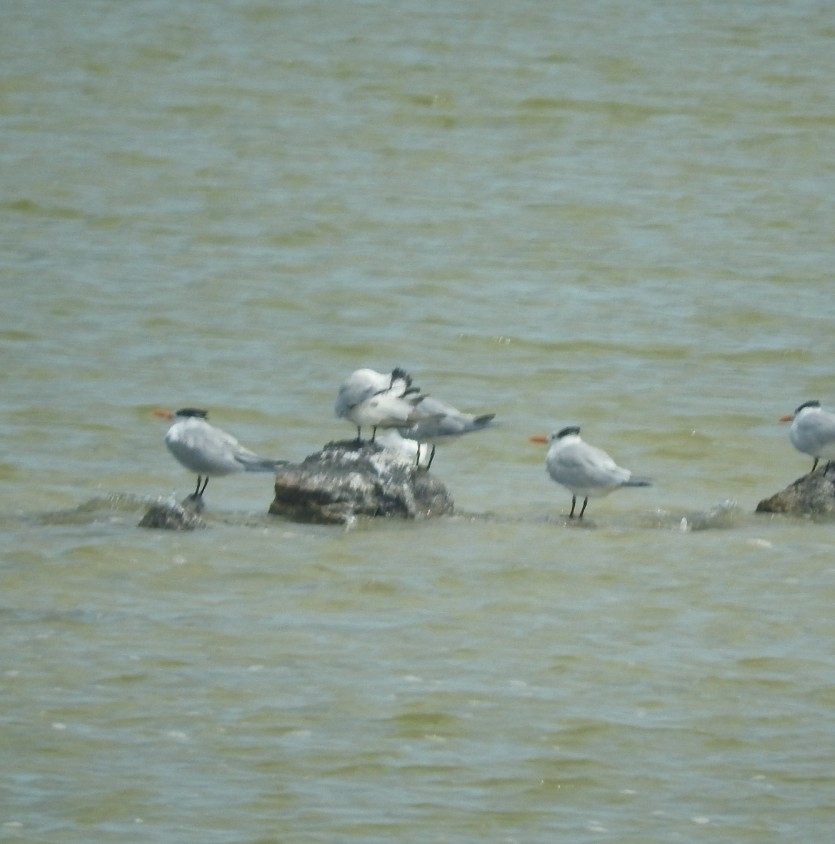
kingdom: Animalia
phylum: Chordata
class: Aves
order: Charadriiformes
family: Laridae
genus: Thalasseus
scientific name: Thalasseus maximus
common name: Royal tern
